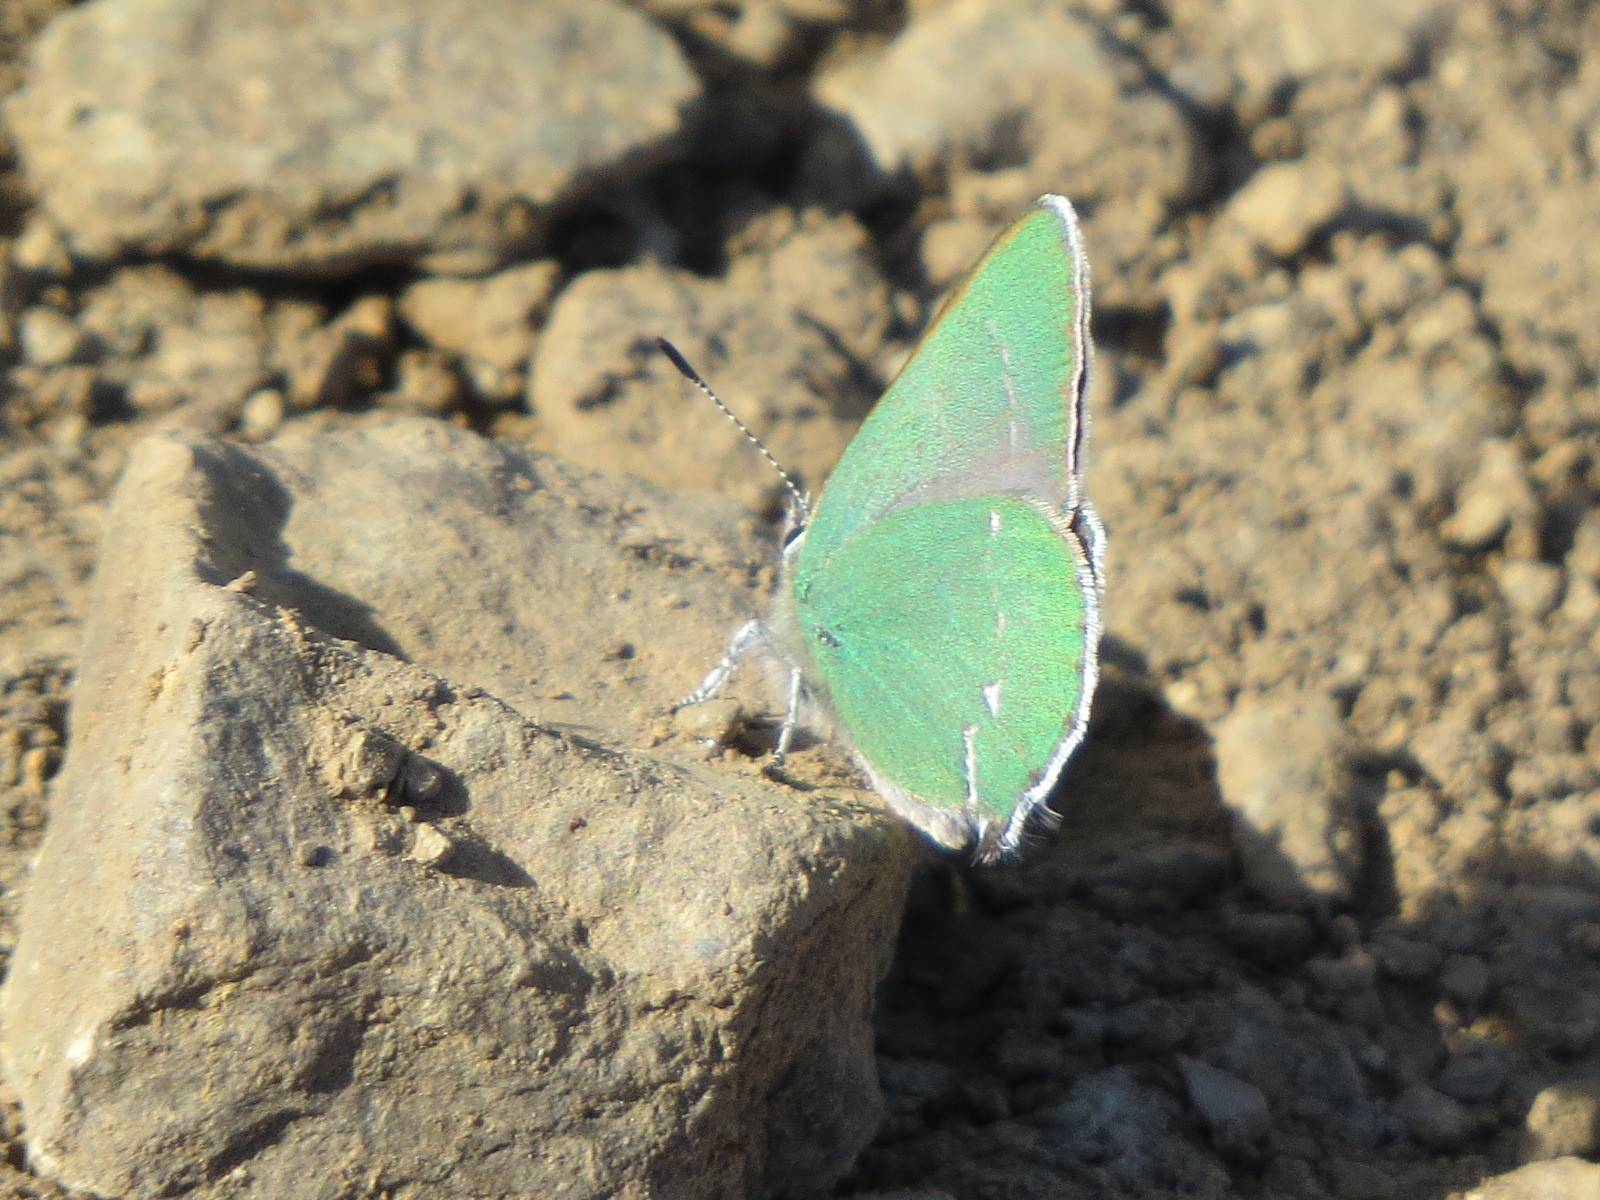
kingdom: Animalia
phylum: Arthropoda
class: Insecta
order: Lepidoptera
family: Lycaenidae
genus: Thecla
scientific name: Thecla sheridanii
